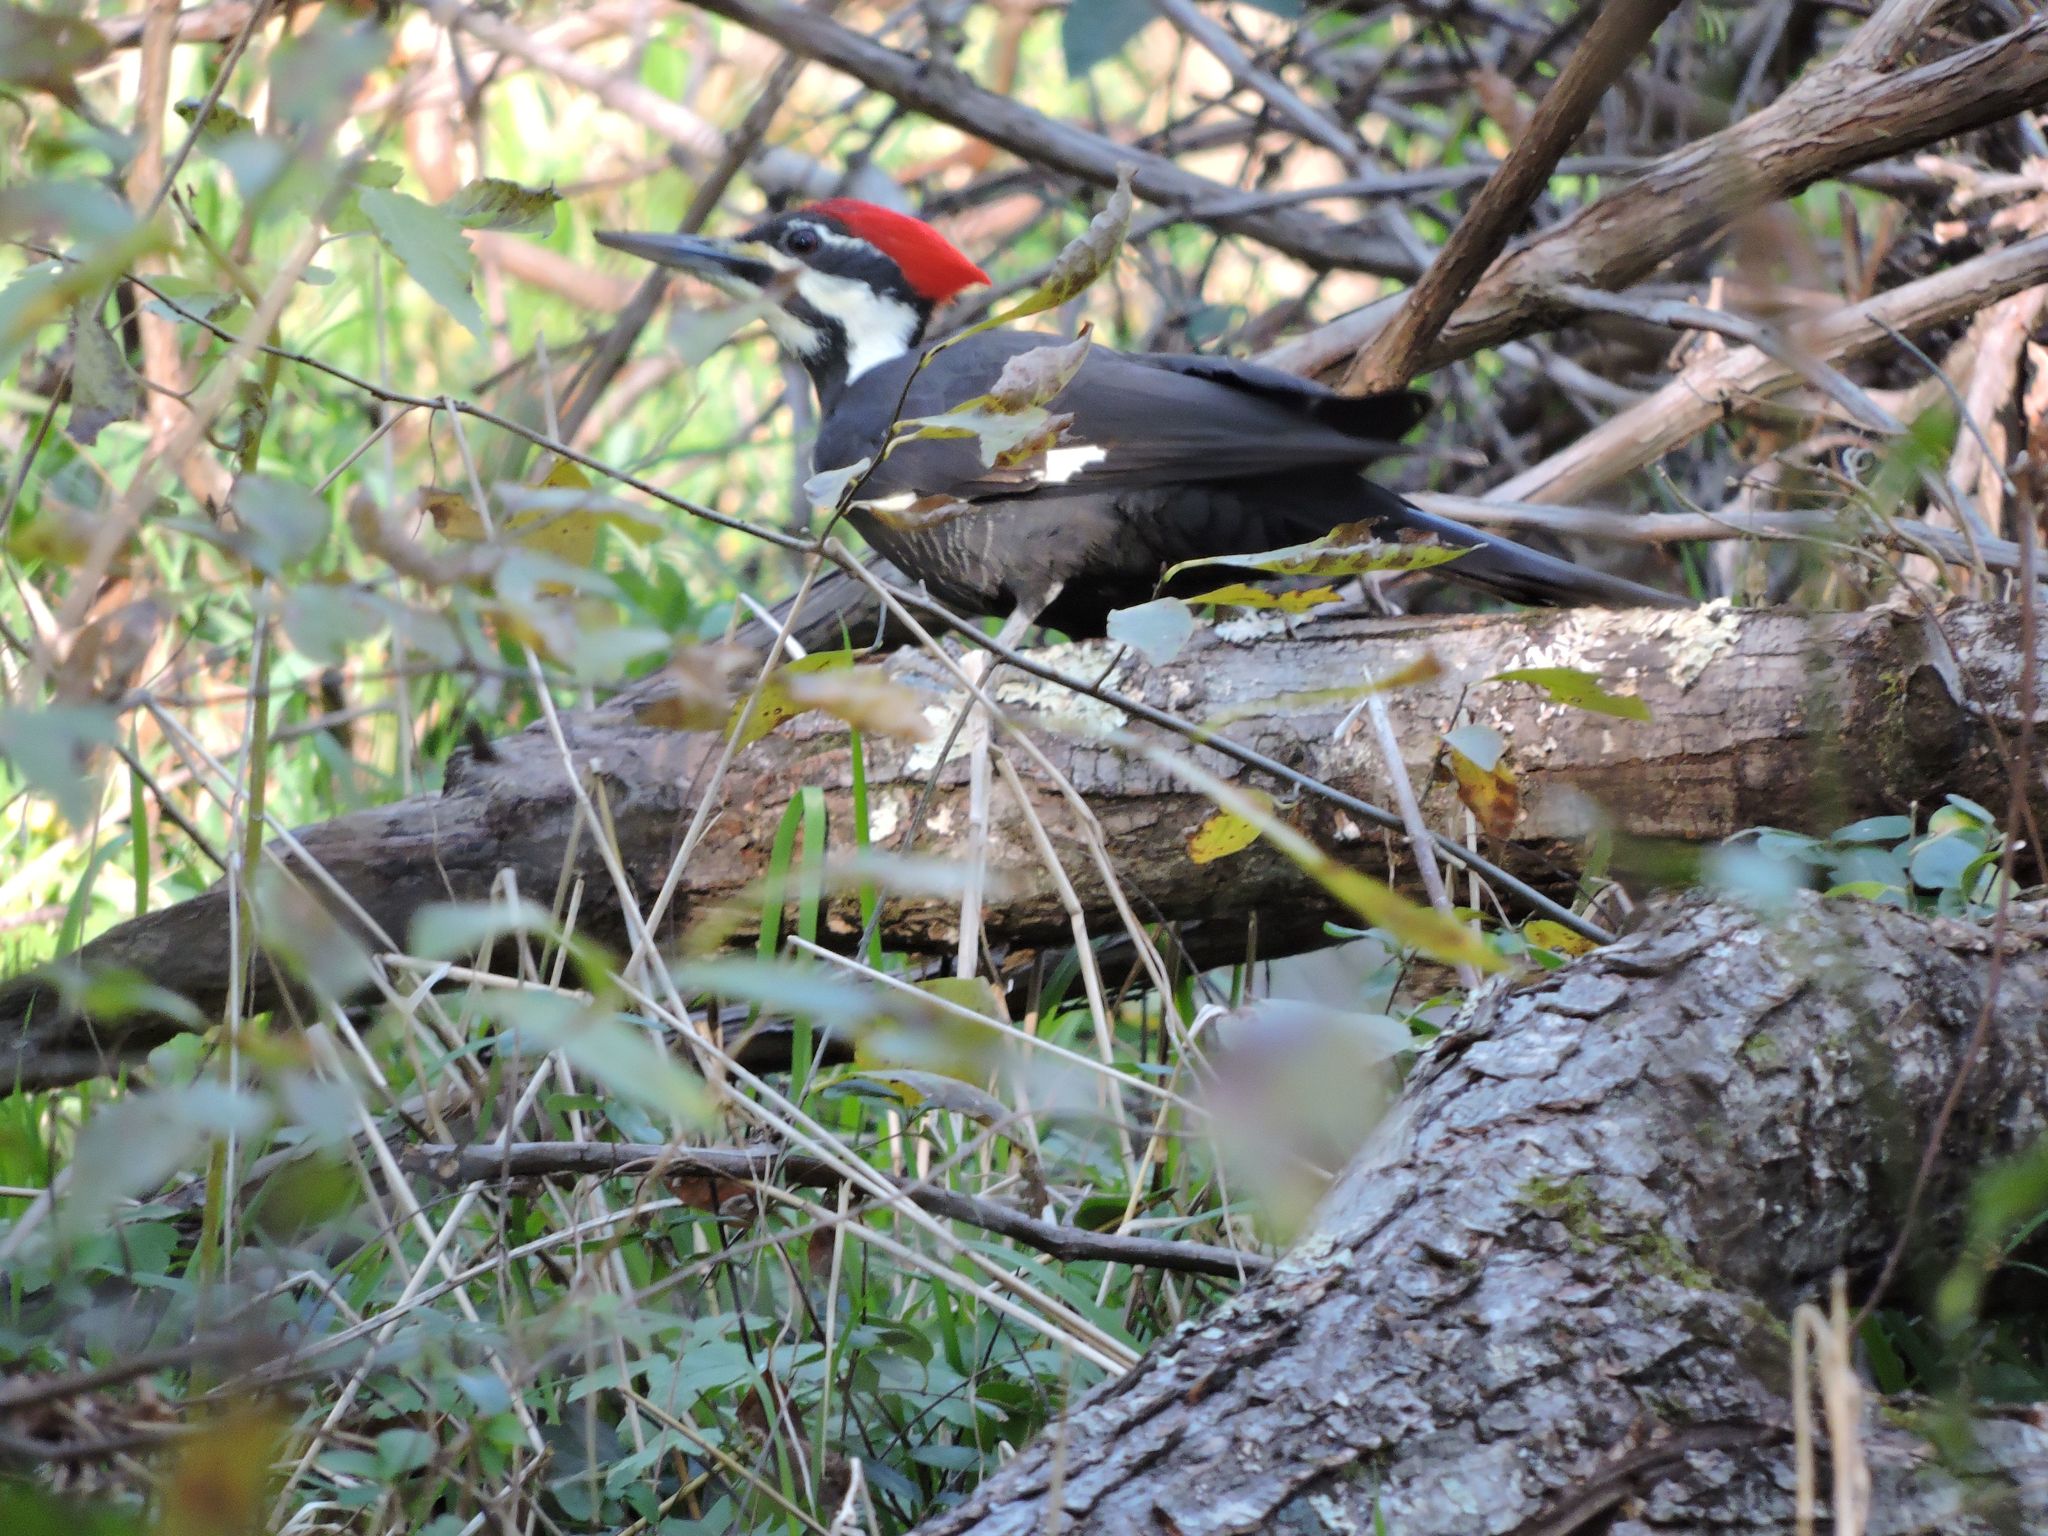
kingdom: Animalia
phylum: Chordata
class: Aves
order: Piciformes
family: Picidae
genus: Dryocopus
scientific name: Dryocopus pileatus
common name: Pileated woodpecker
